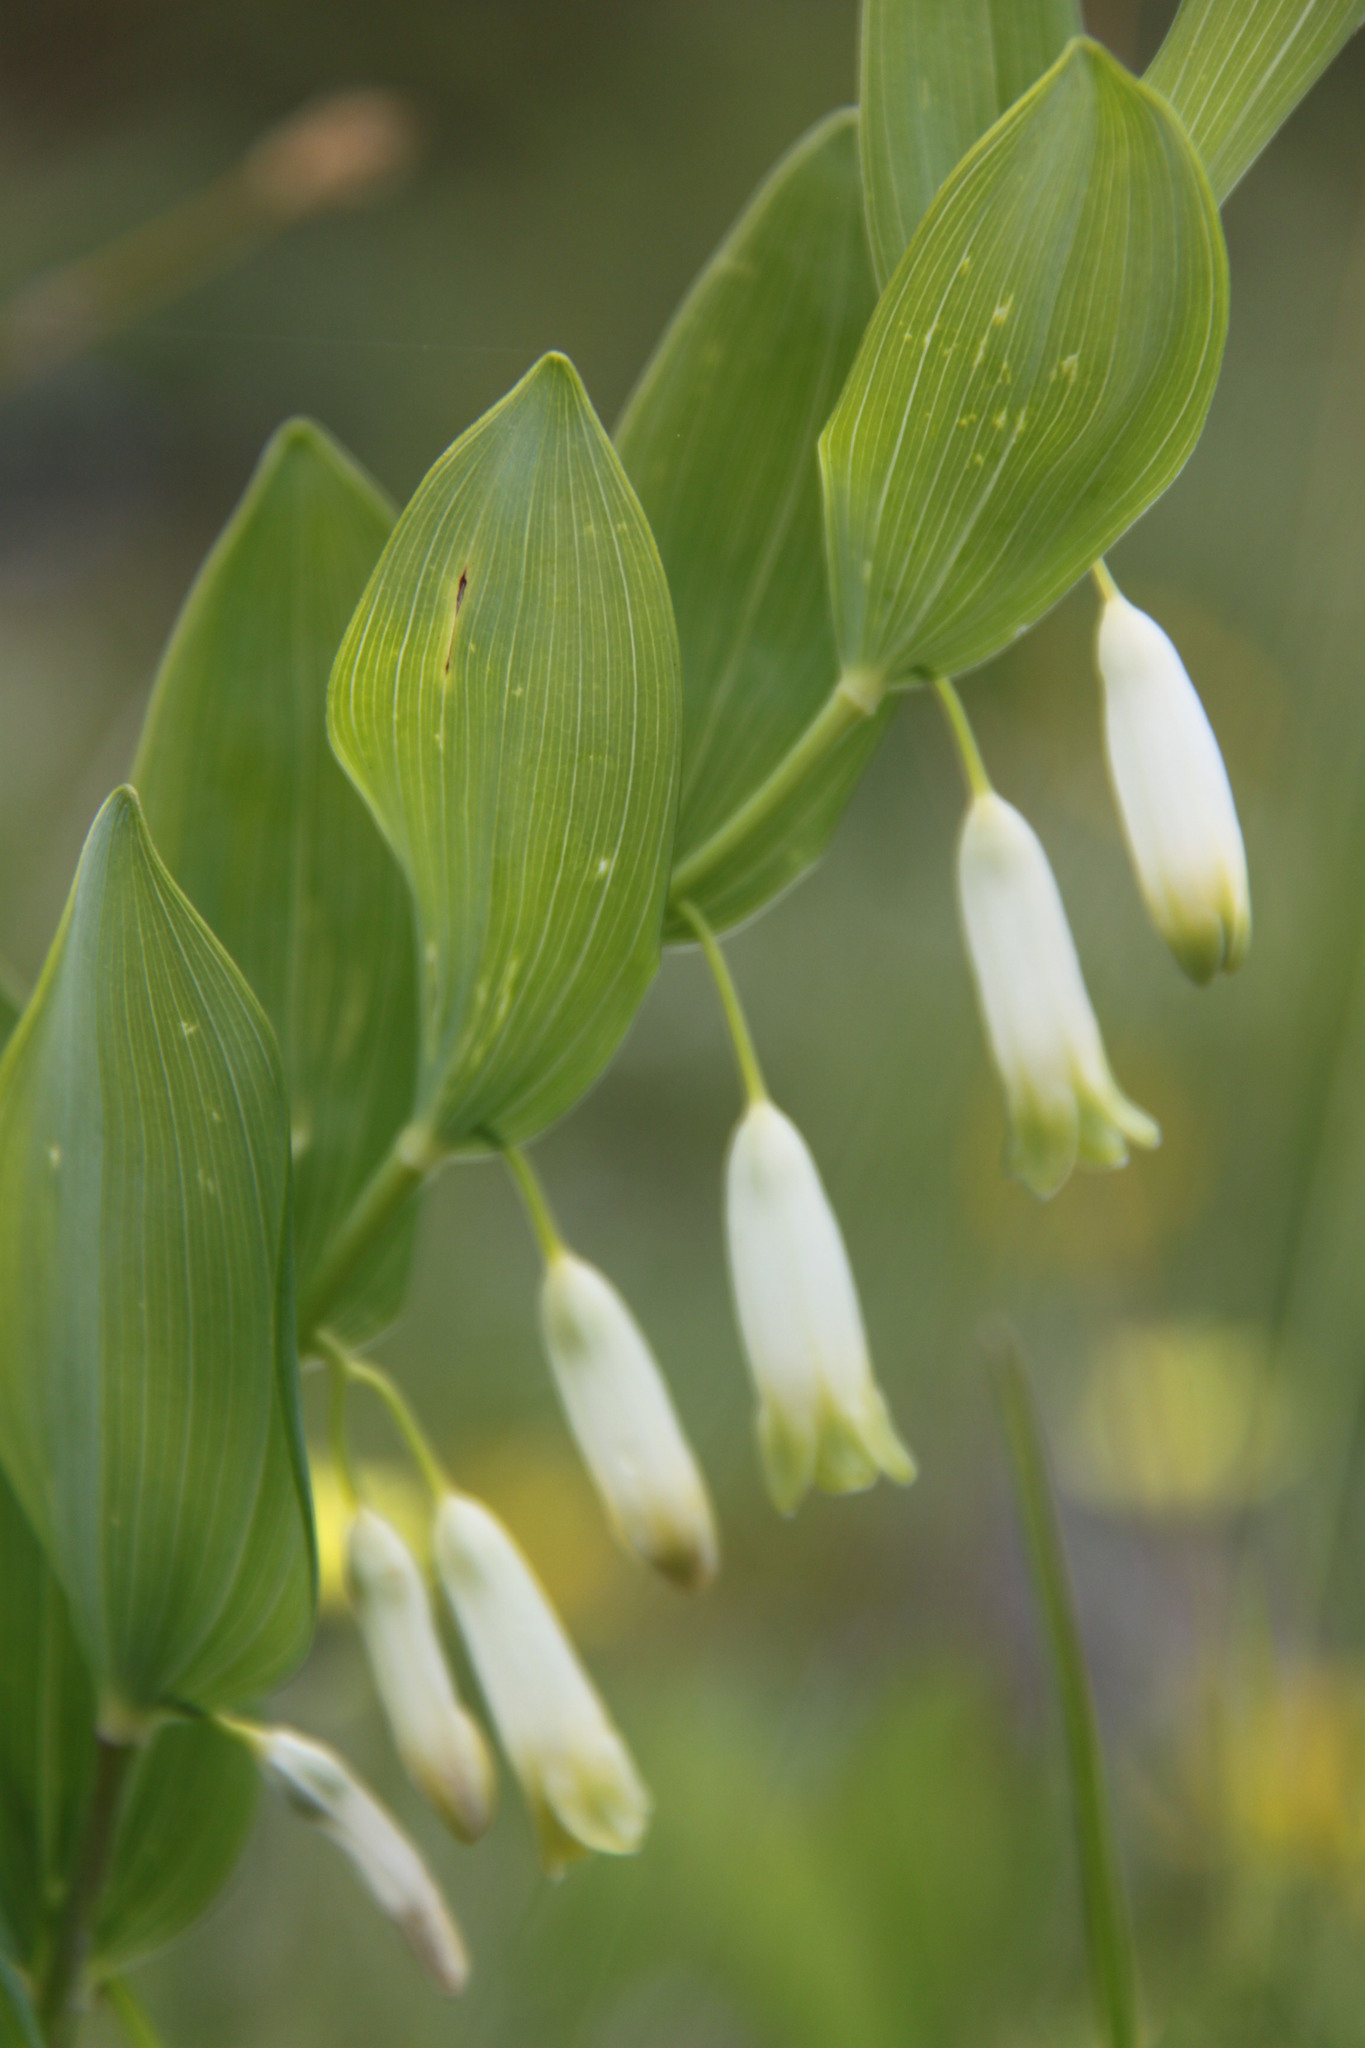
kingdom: Plantae
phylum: Tracheophyta
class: Liliopsida
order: Asparagales
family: Asparagaceae
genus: Polygonatum
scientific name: Polygonatum odoratum
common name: Angular solomon's-seal
